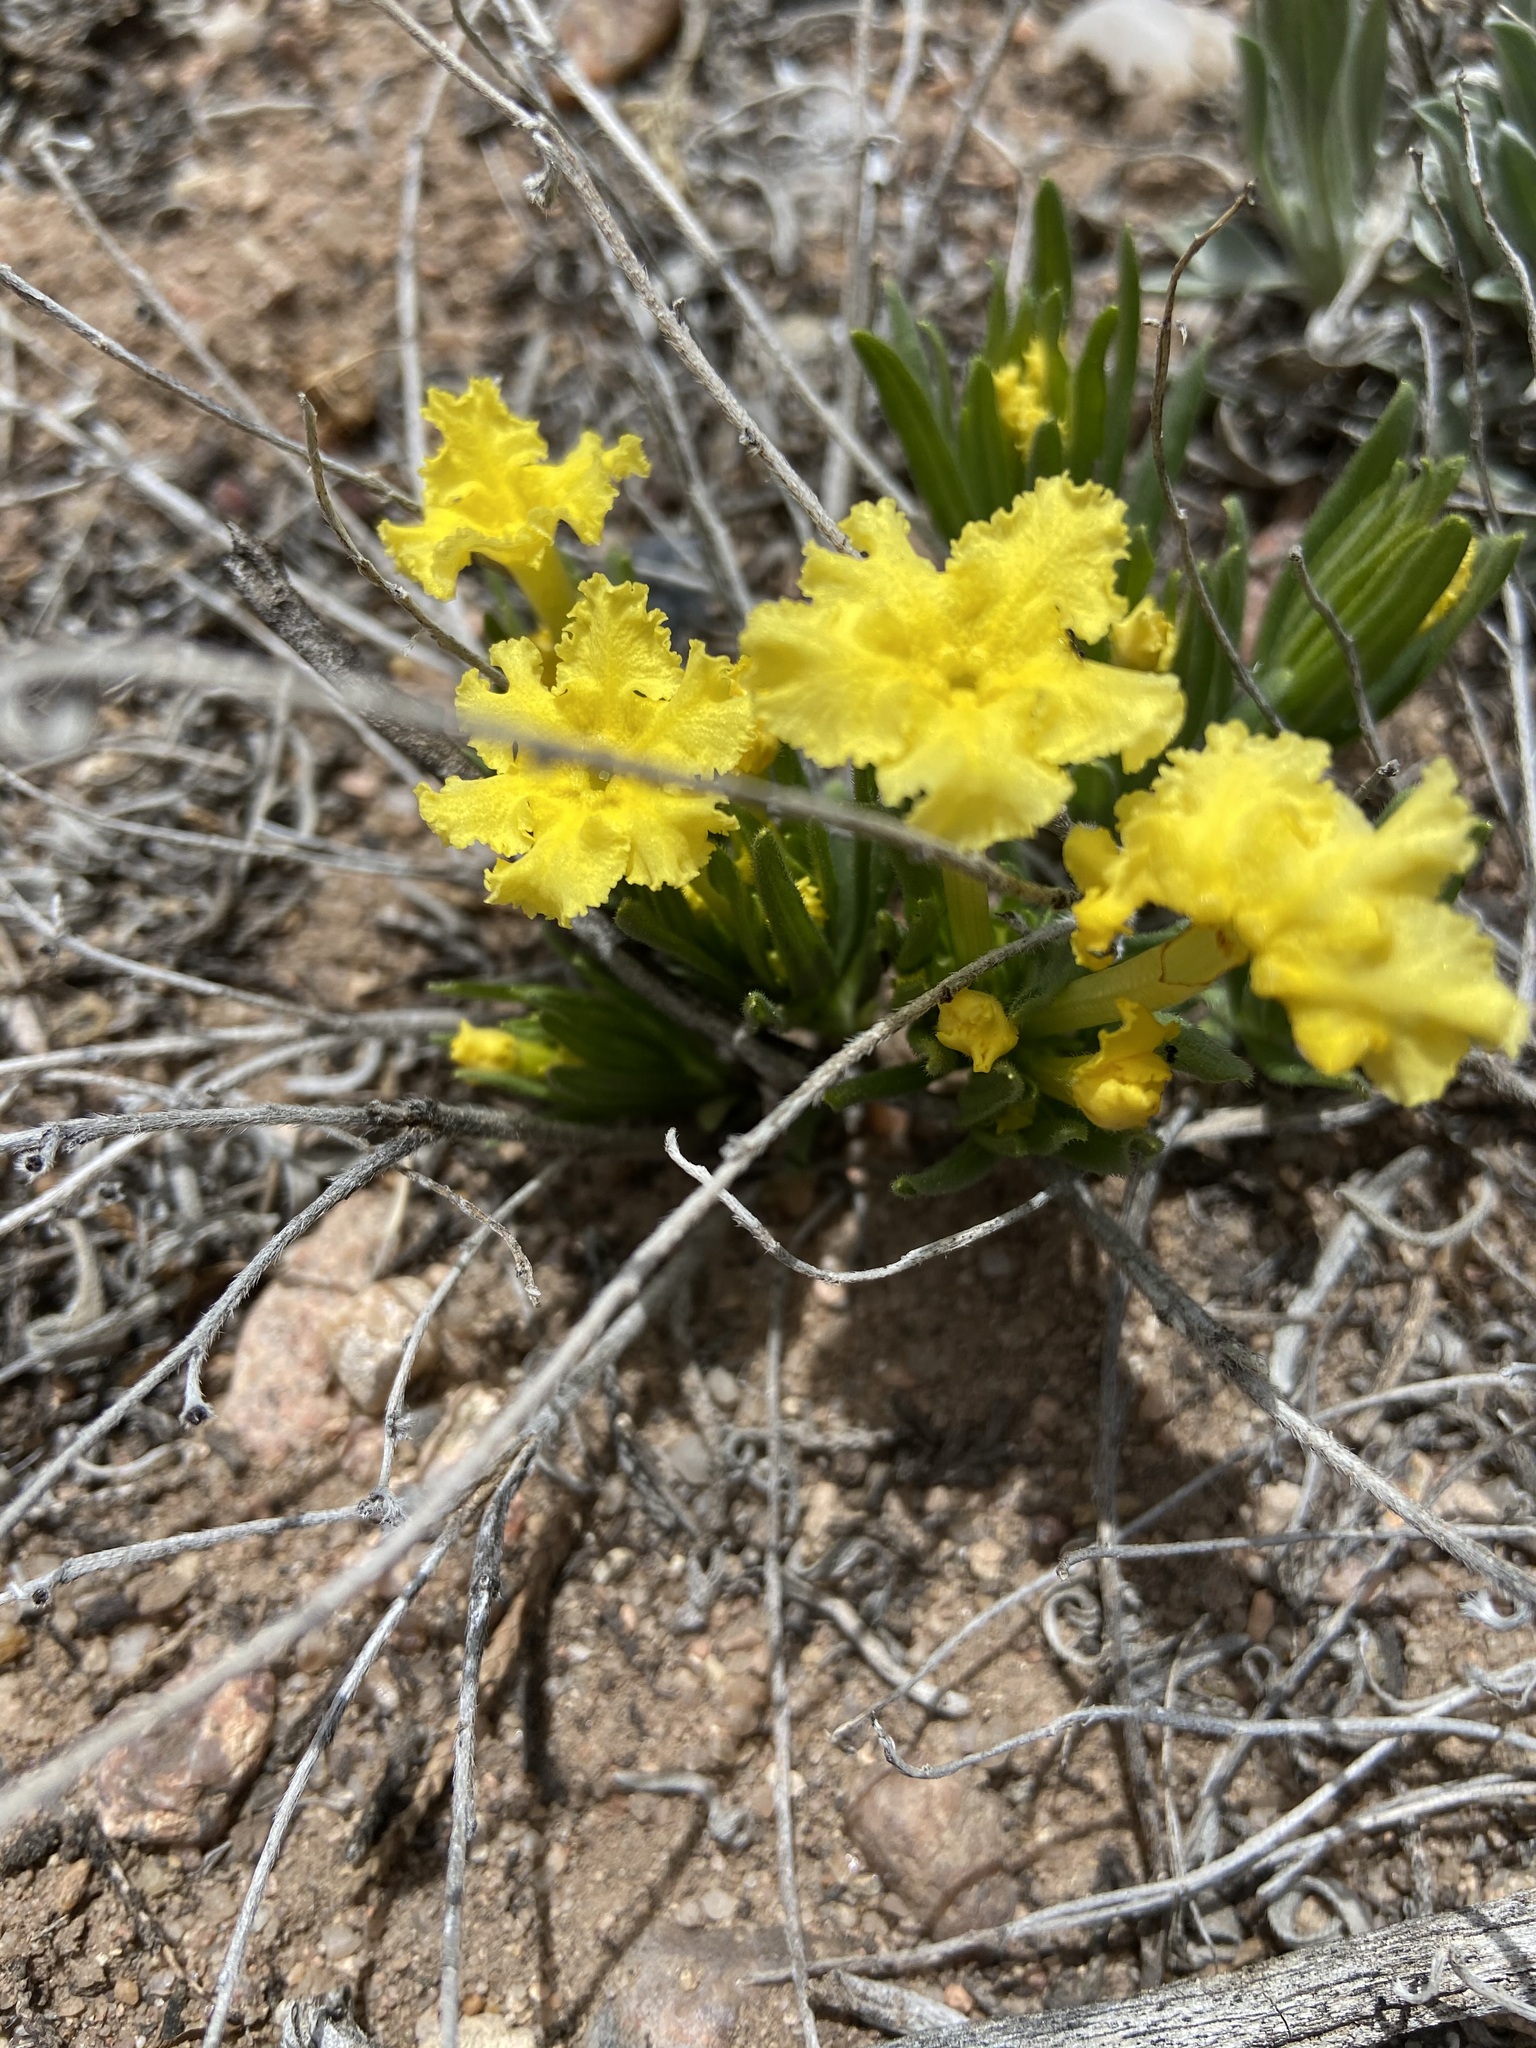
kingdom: Plantae
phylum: Tracheophyta
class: Magnoliopsida
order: Boraginales
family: Boraginaceae
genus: Lithospermum
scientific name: Lithospermum incisum
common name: Fringed gromwell
